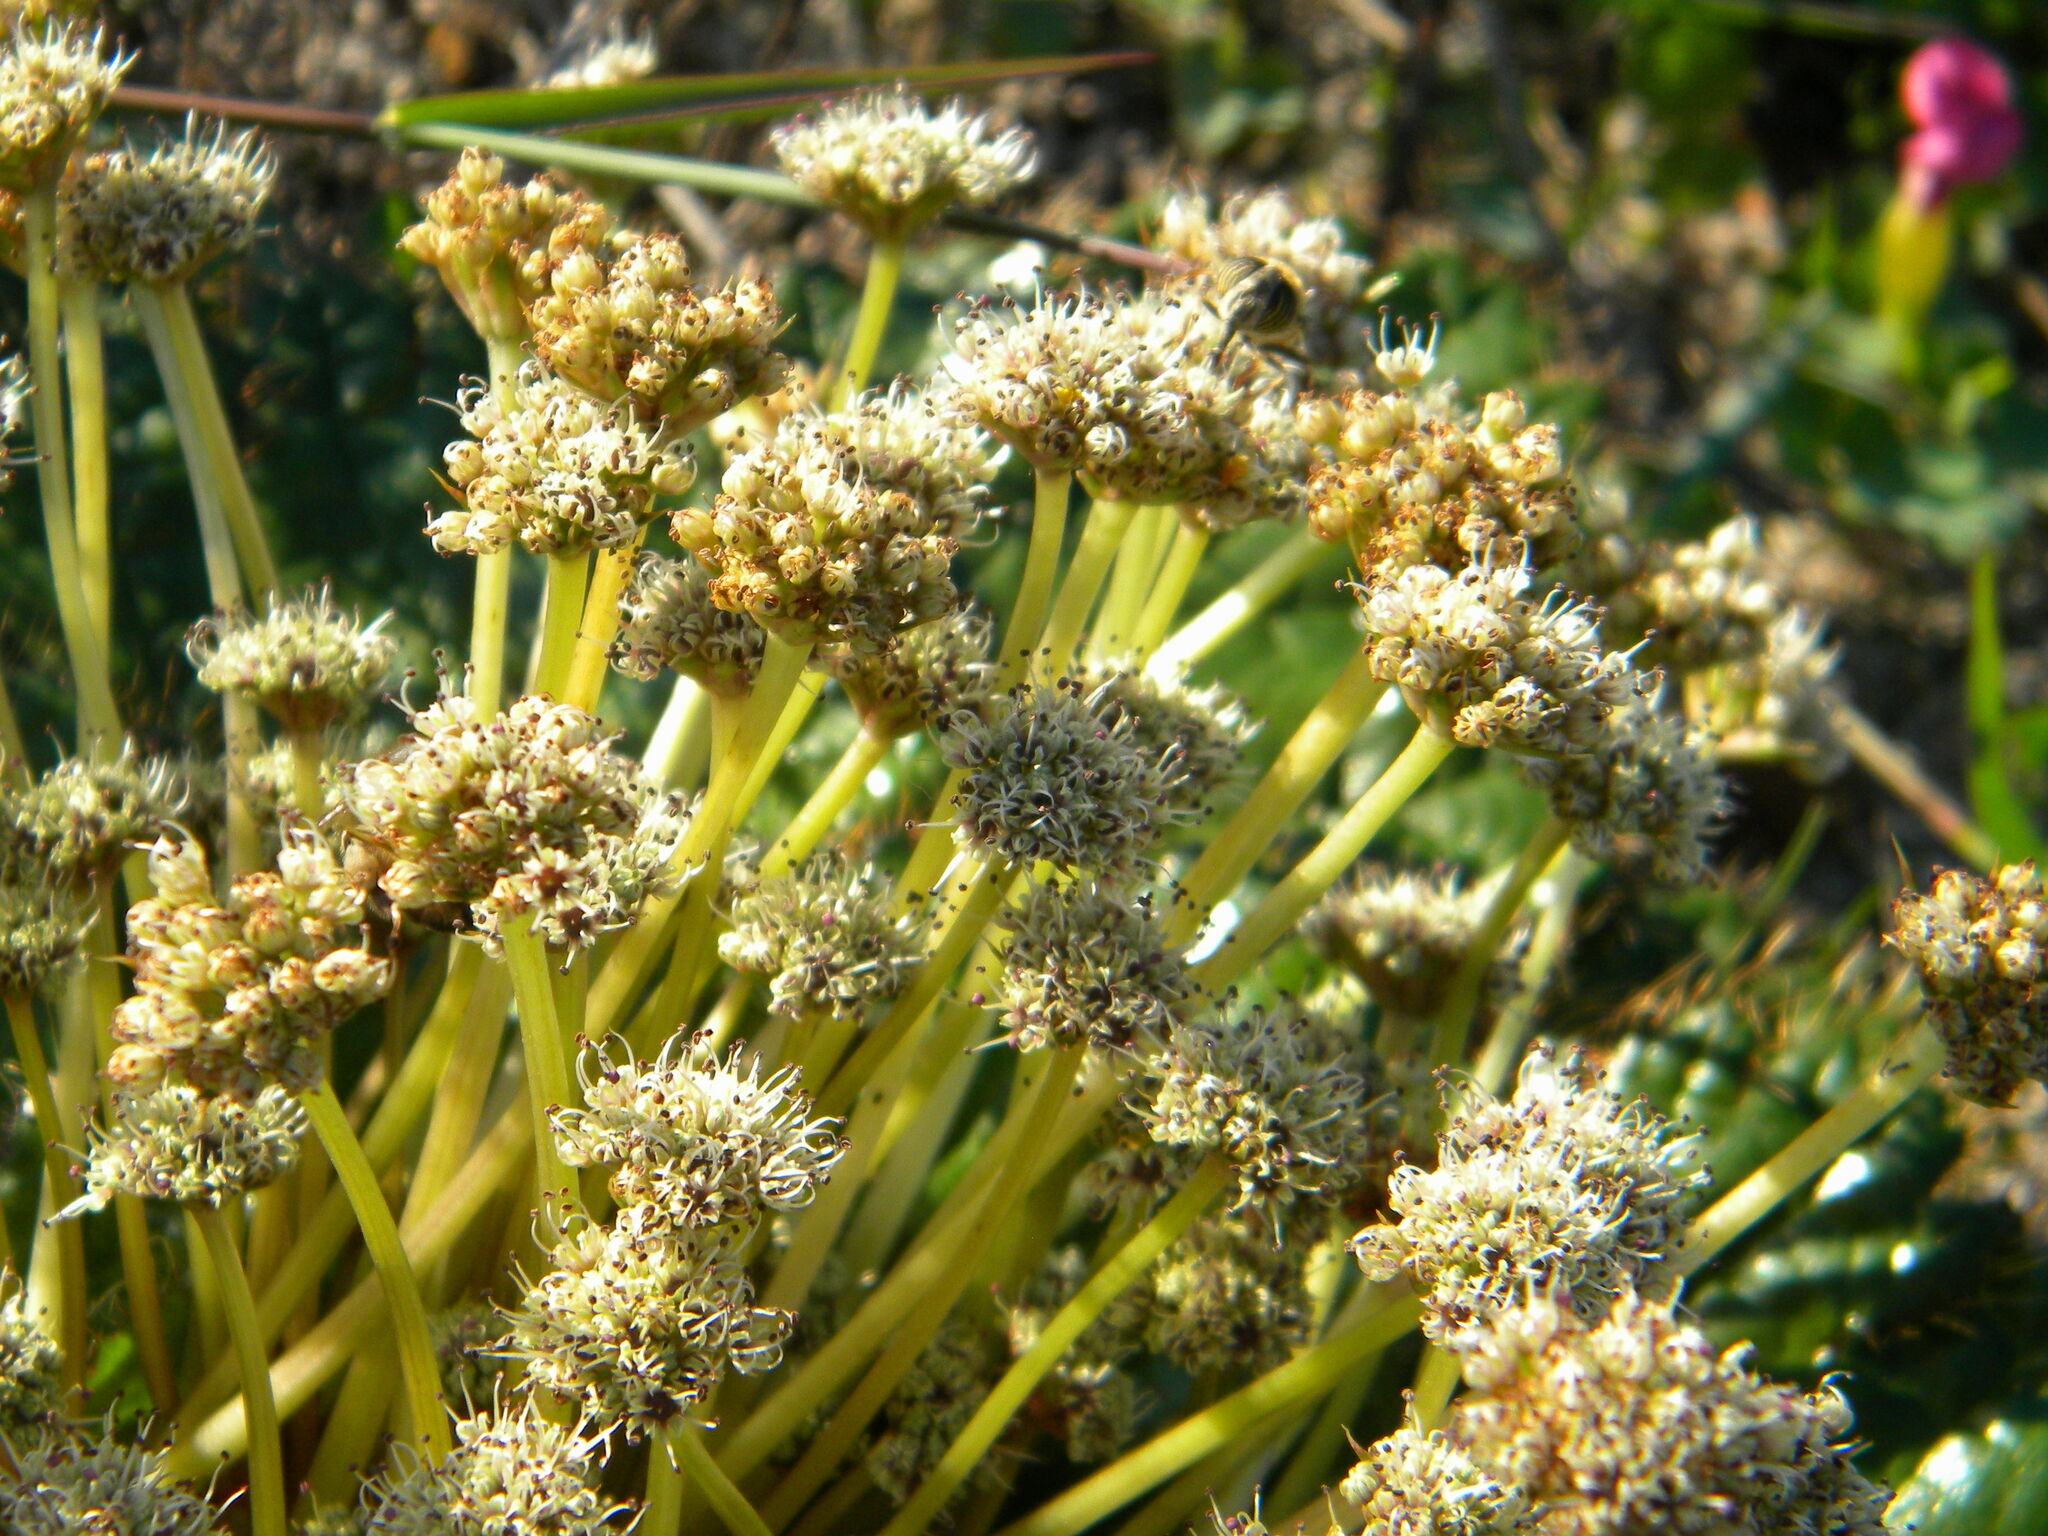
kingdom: Plantae
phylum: Tracheophyta
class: Magnoliopsida
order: Apiales
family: Apiaceae
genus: Arctopus
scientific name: Arctopus echinatus
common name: Platdoring
